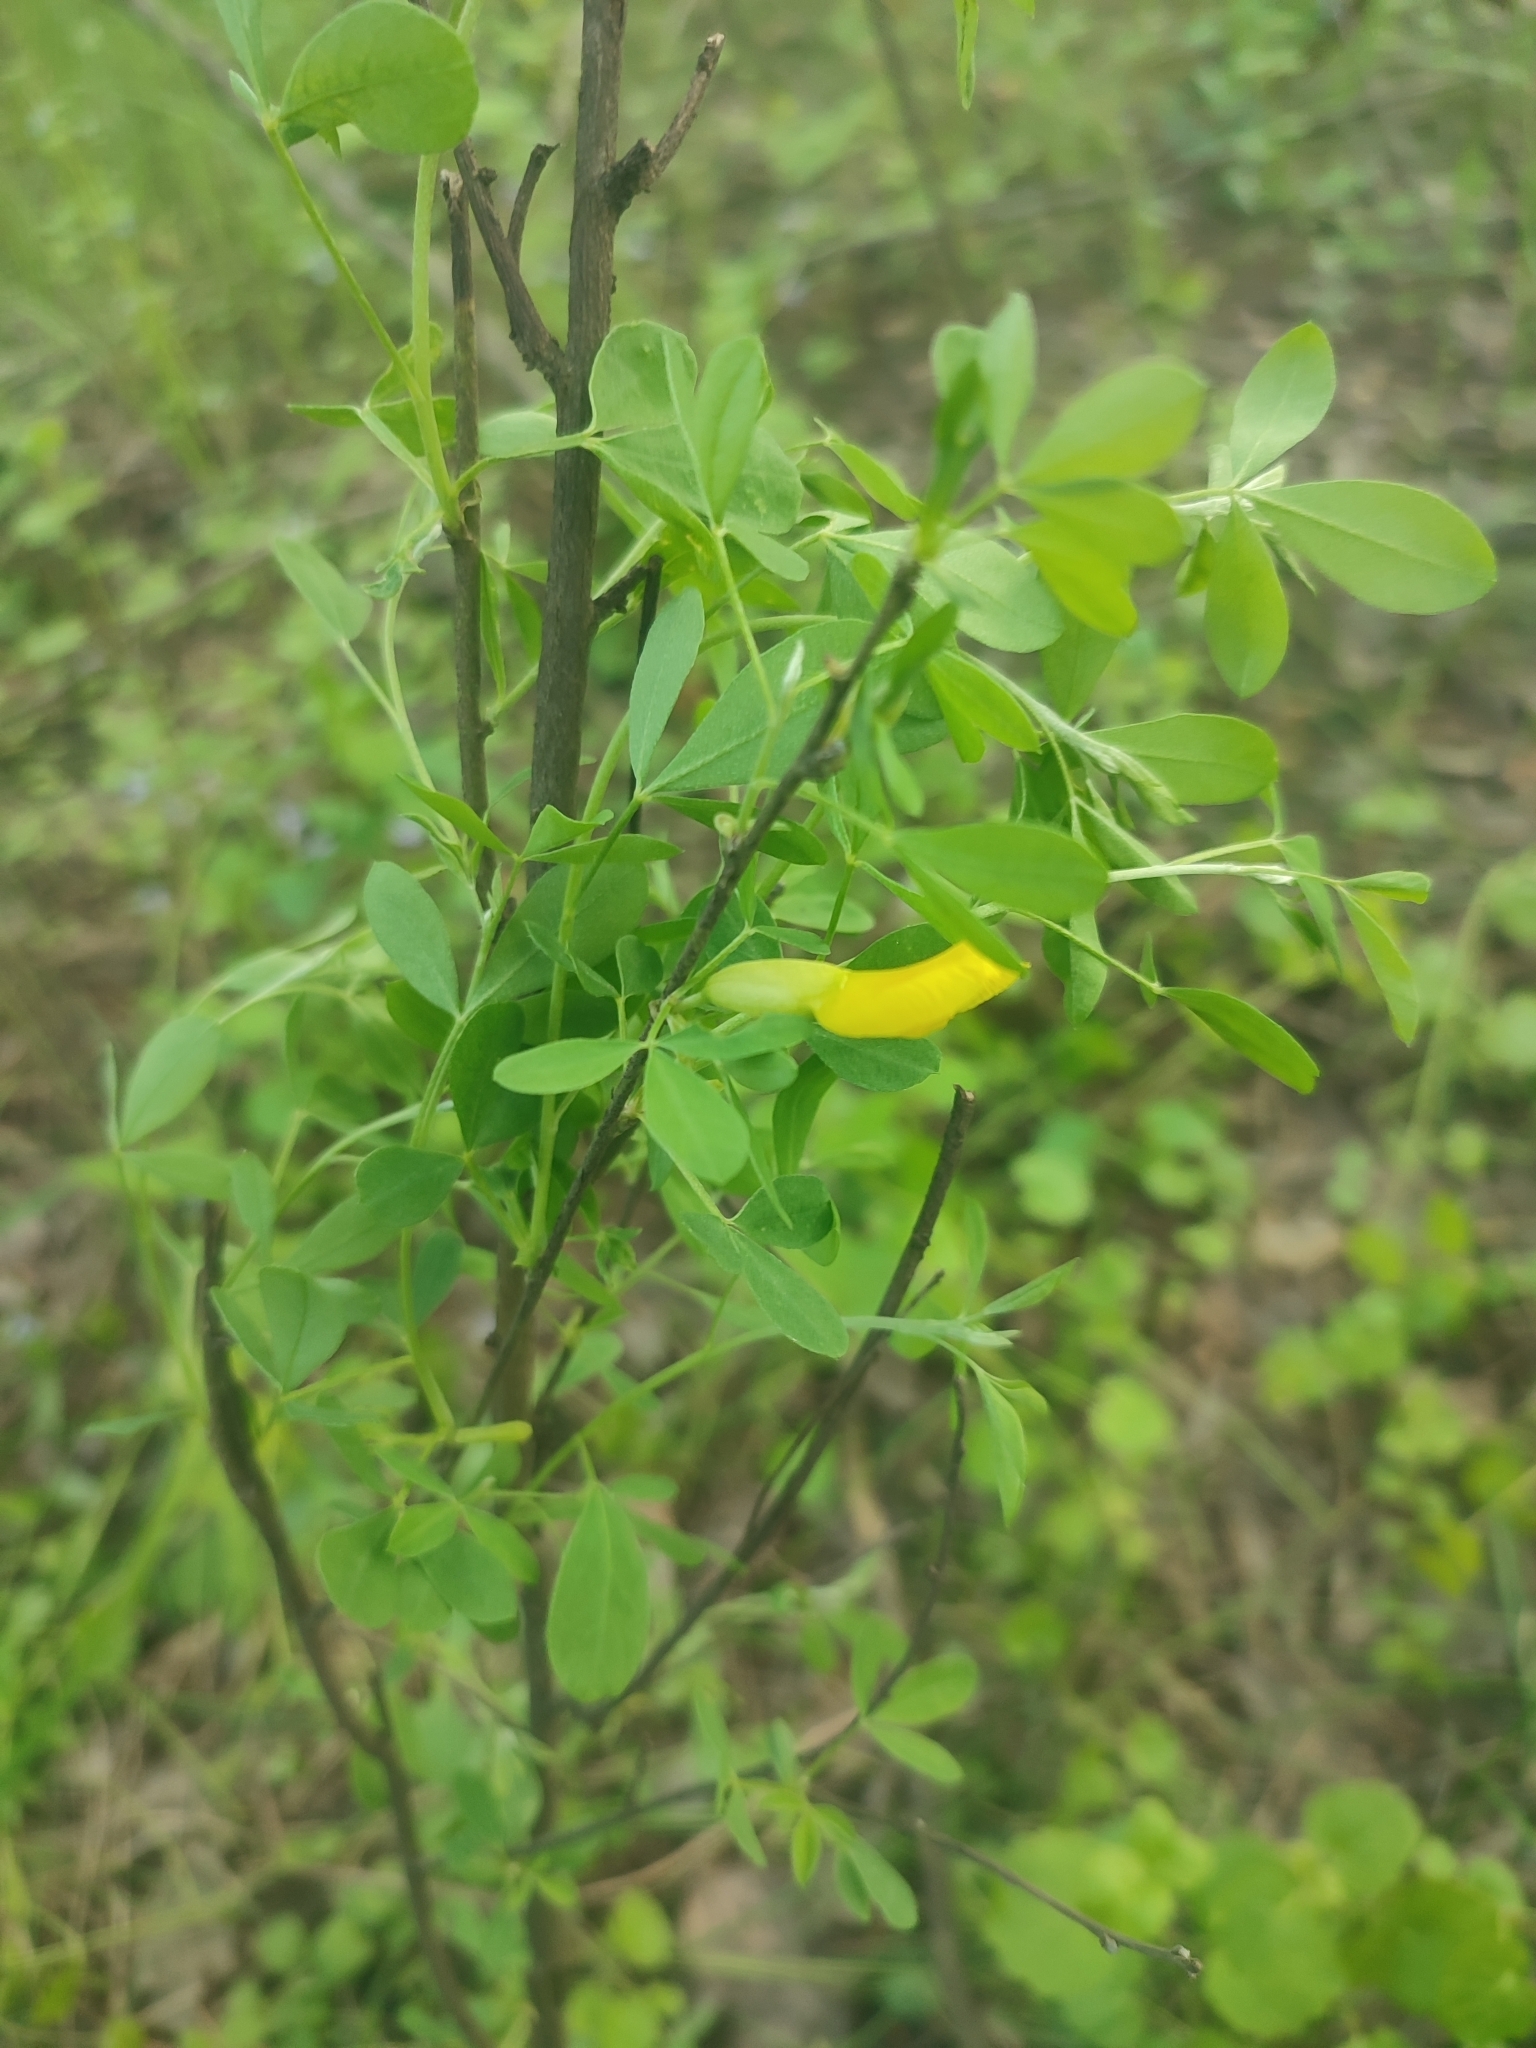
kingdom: Plantae
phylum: Tracheophyta
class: Magnoliopsida
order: Fabales
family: Fabaceae
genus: Chamaecytisus
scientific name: Chamaecytisus ruthenicus
